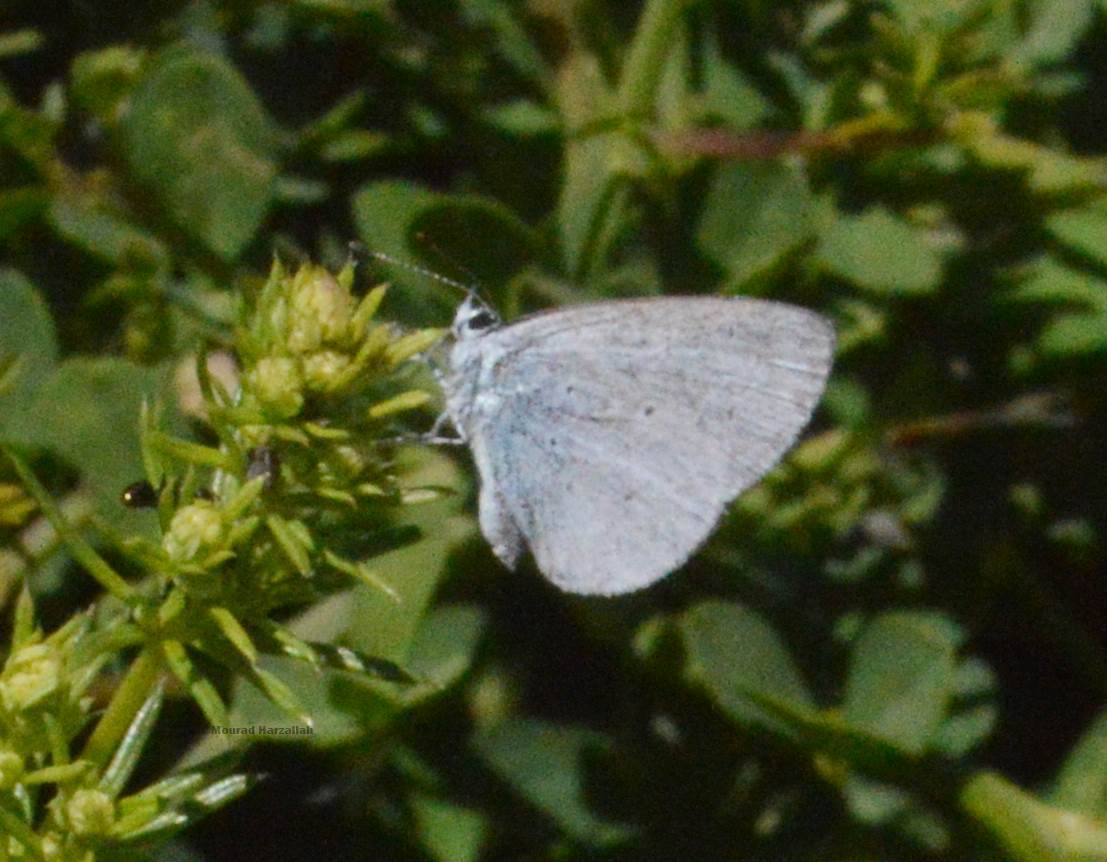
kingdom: Animalia
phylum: Arthropoda
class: Insecta
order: Lepidoptera
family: Lycaenidae
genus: Celastrina
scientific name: Celastrina argiolus
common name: Holly blue
